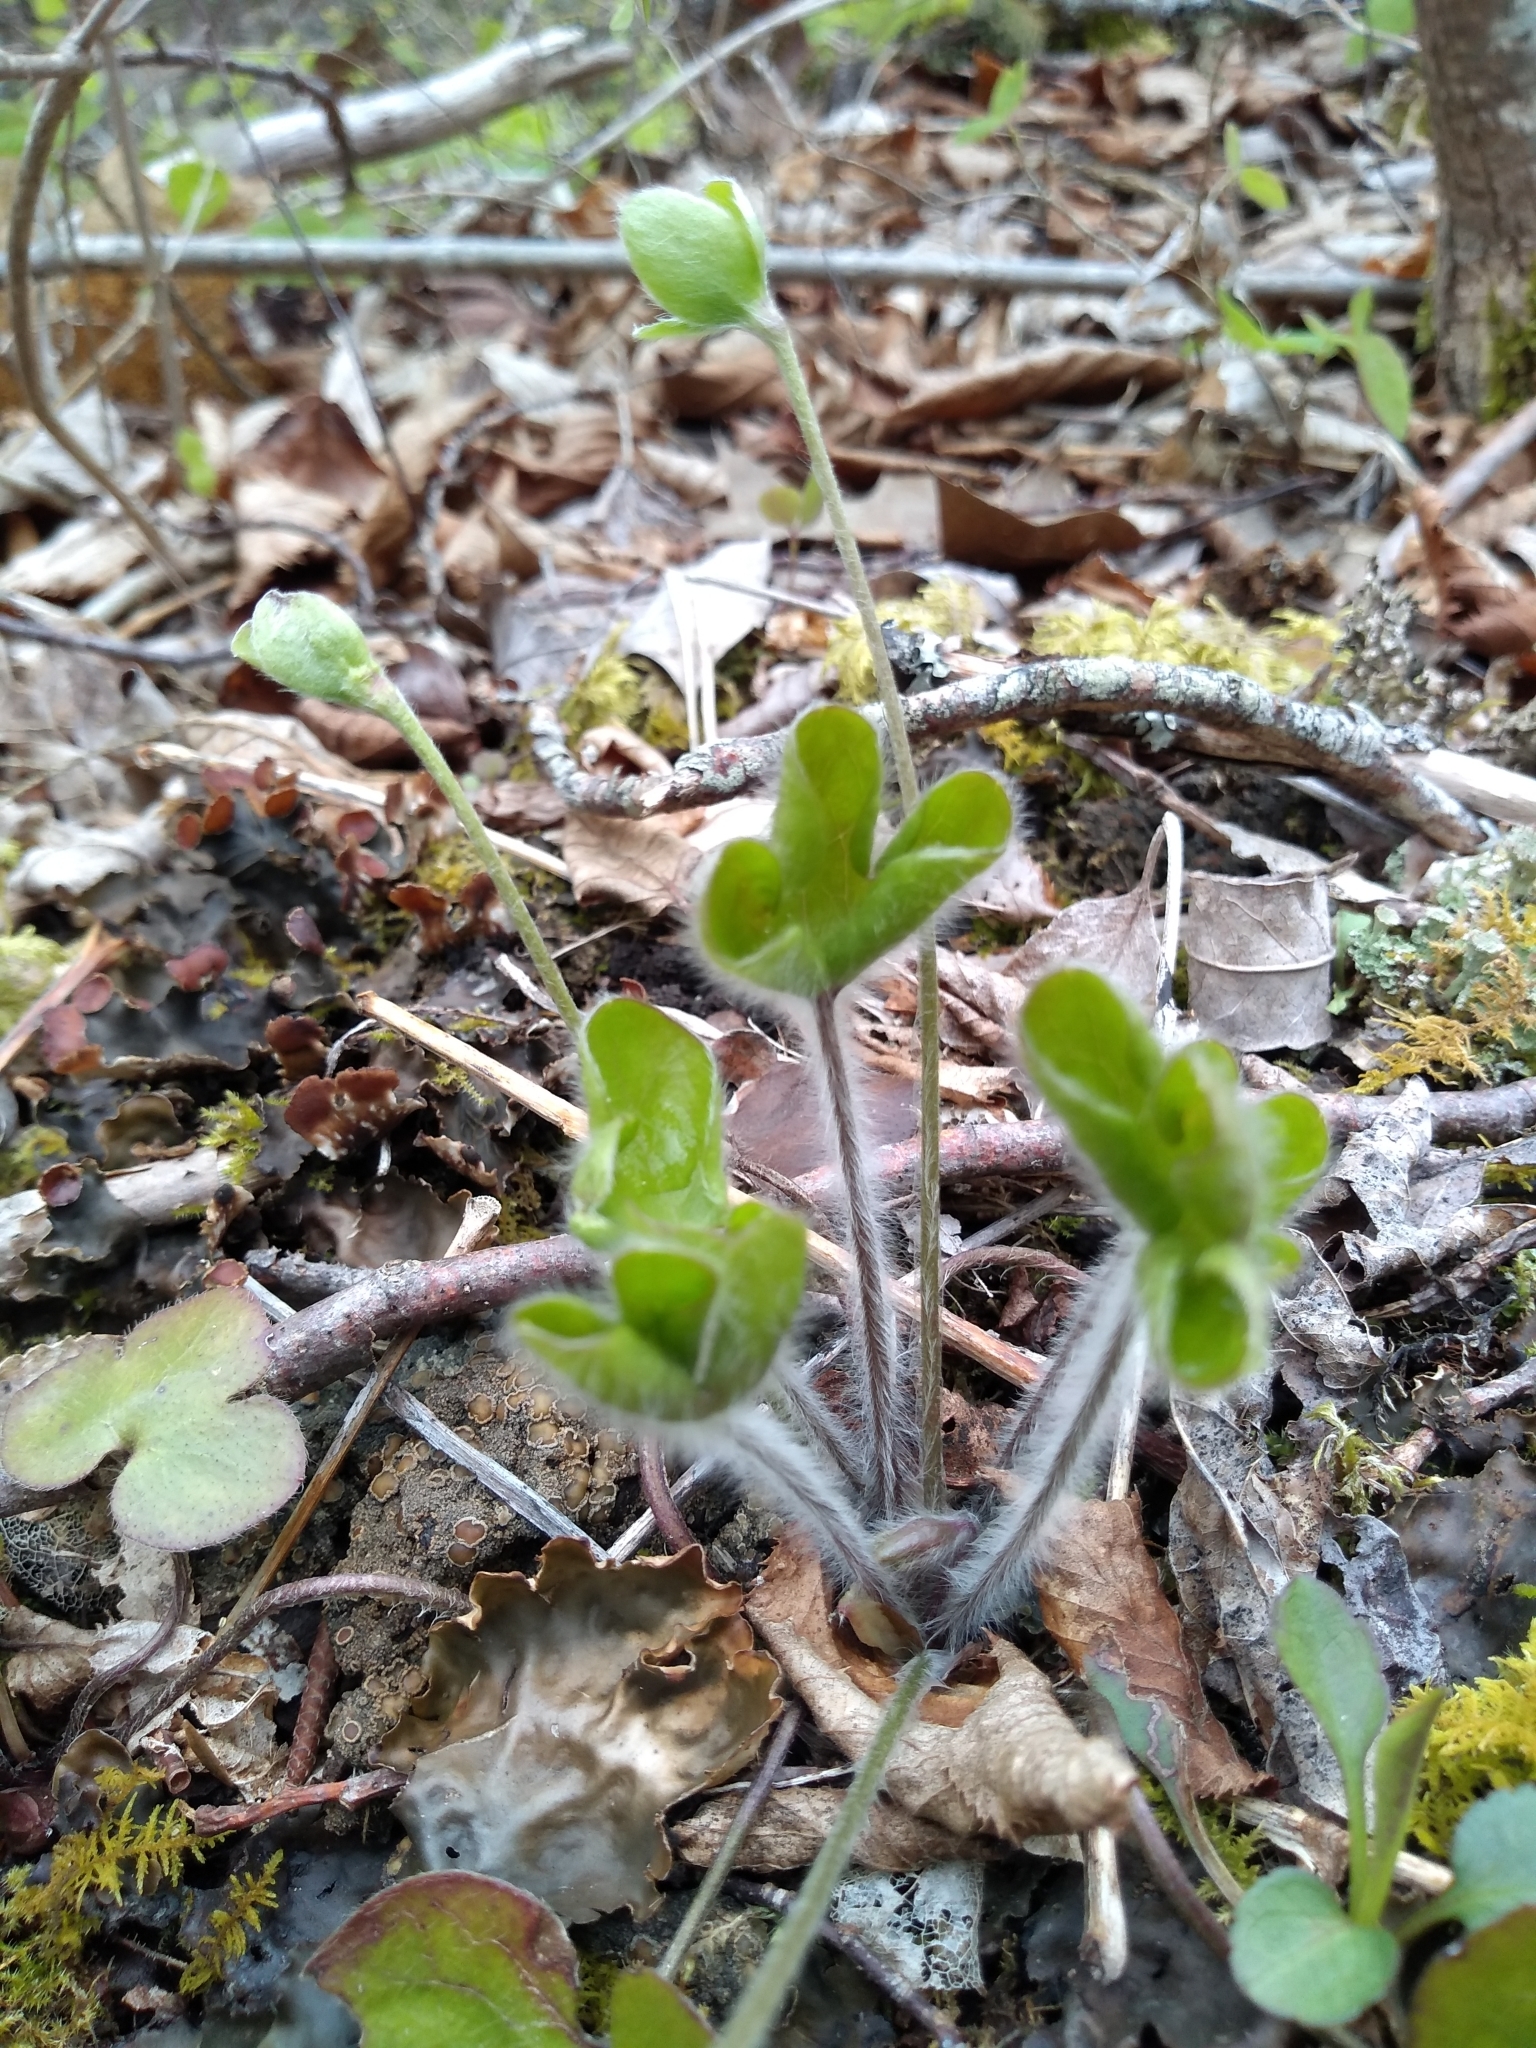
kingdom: Plantae
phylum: Tracheophyta
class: Magnoliopsida
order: Ranunculales
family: Ranunculaceae
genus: Hepatica
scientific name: Hepatica americana
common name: American hepatica
